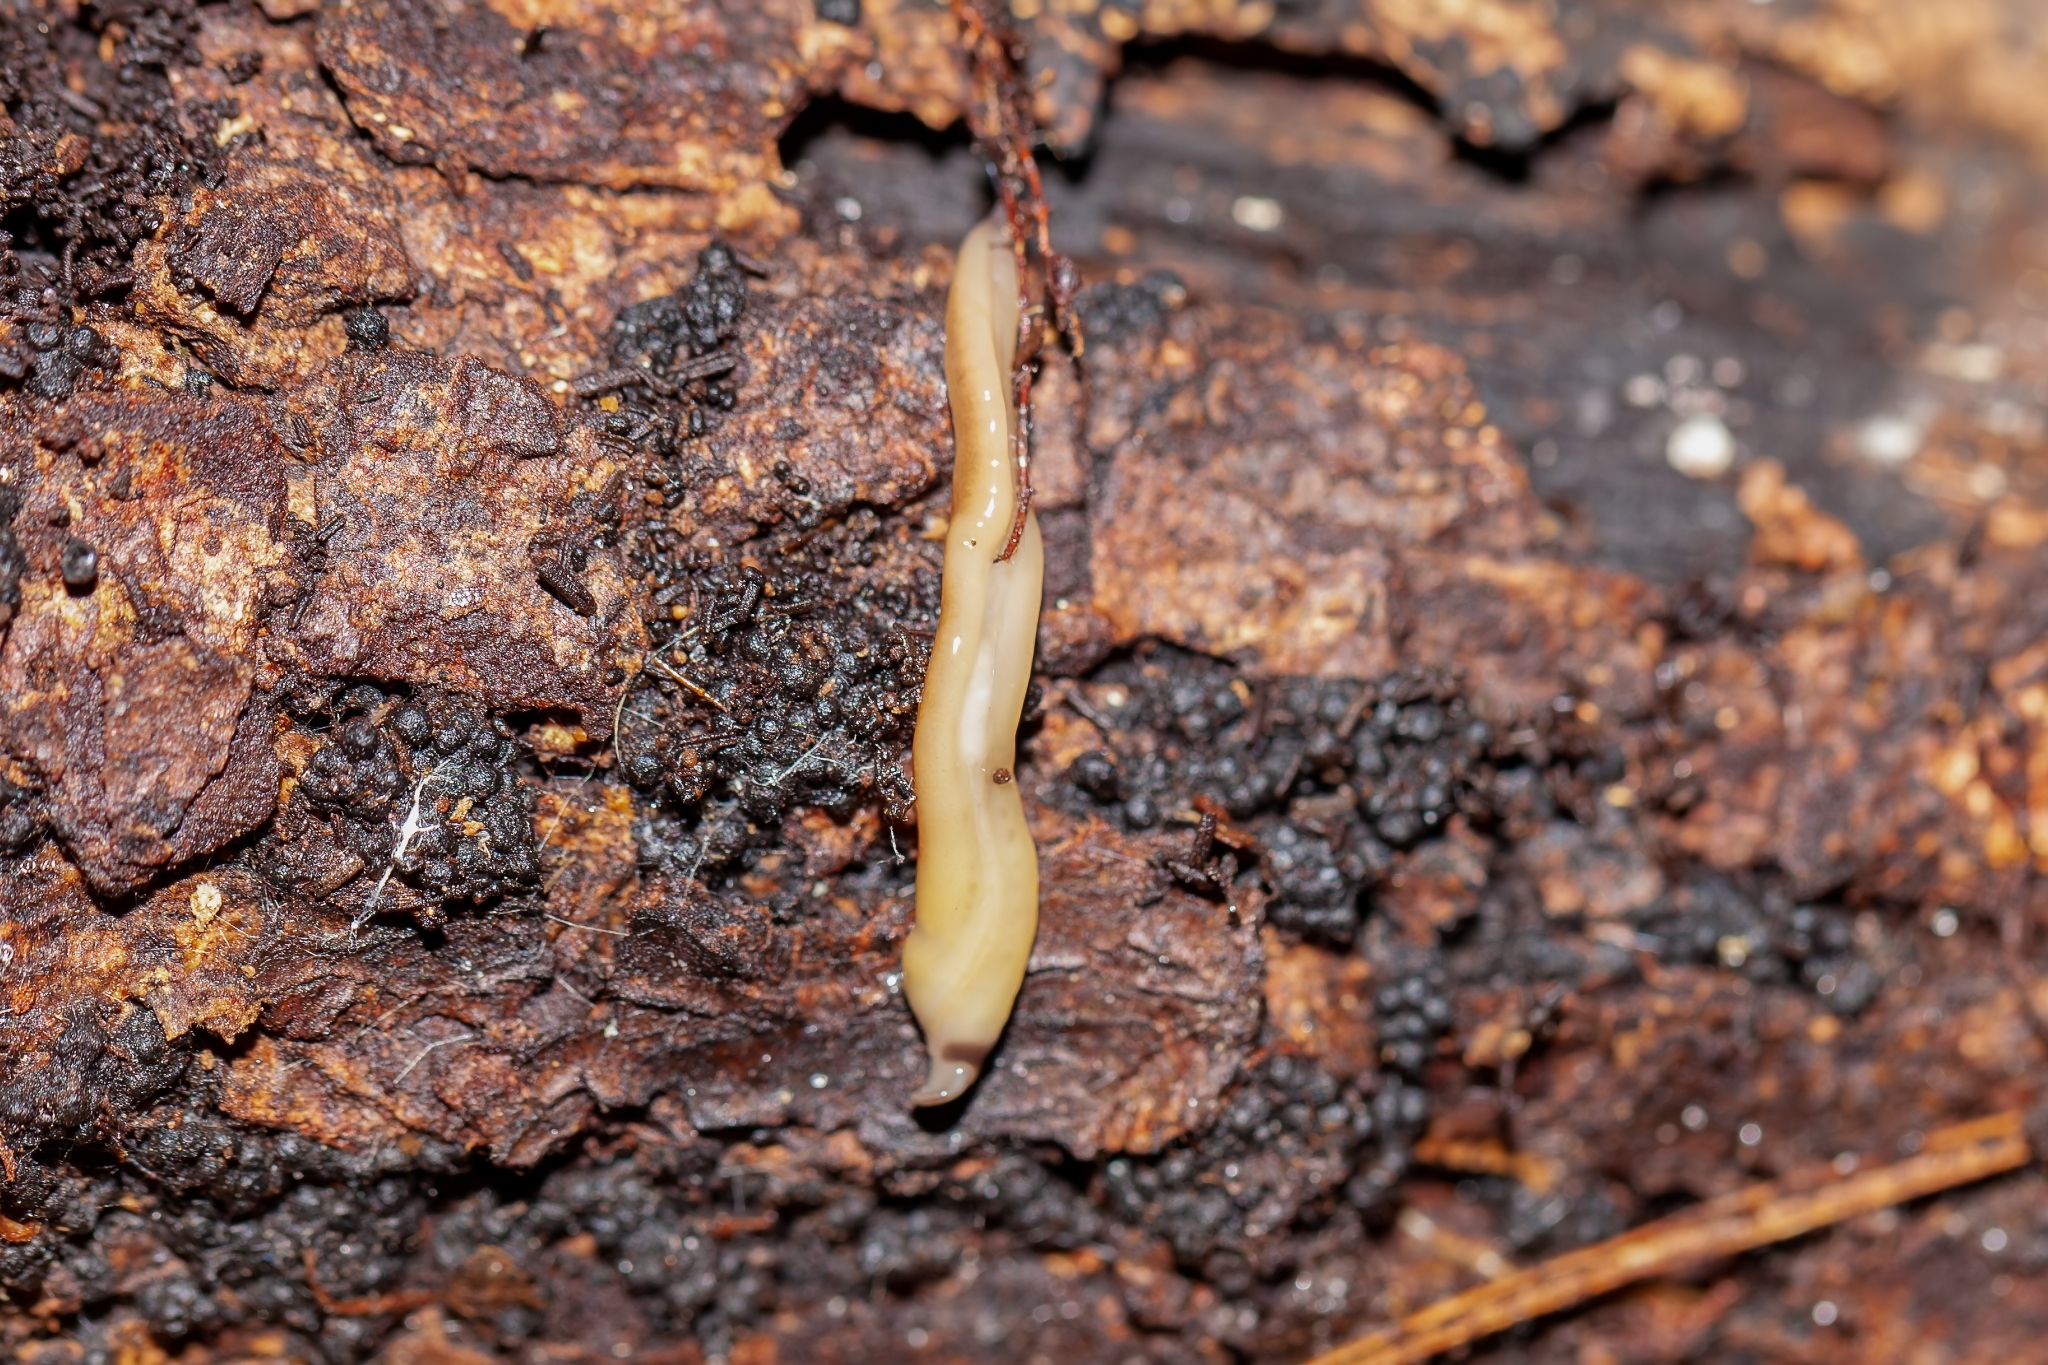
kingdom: Animalia
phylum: Platyhelminthes
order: Tricladida
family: Geoplanidae
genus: Bipalium
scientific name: Bipalium vagum
